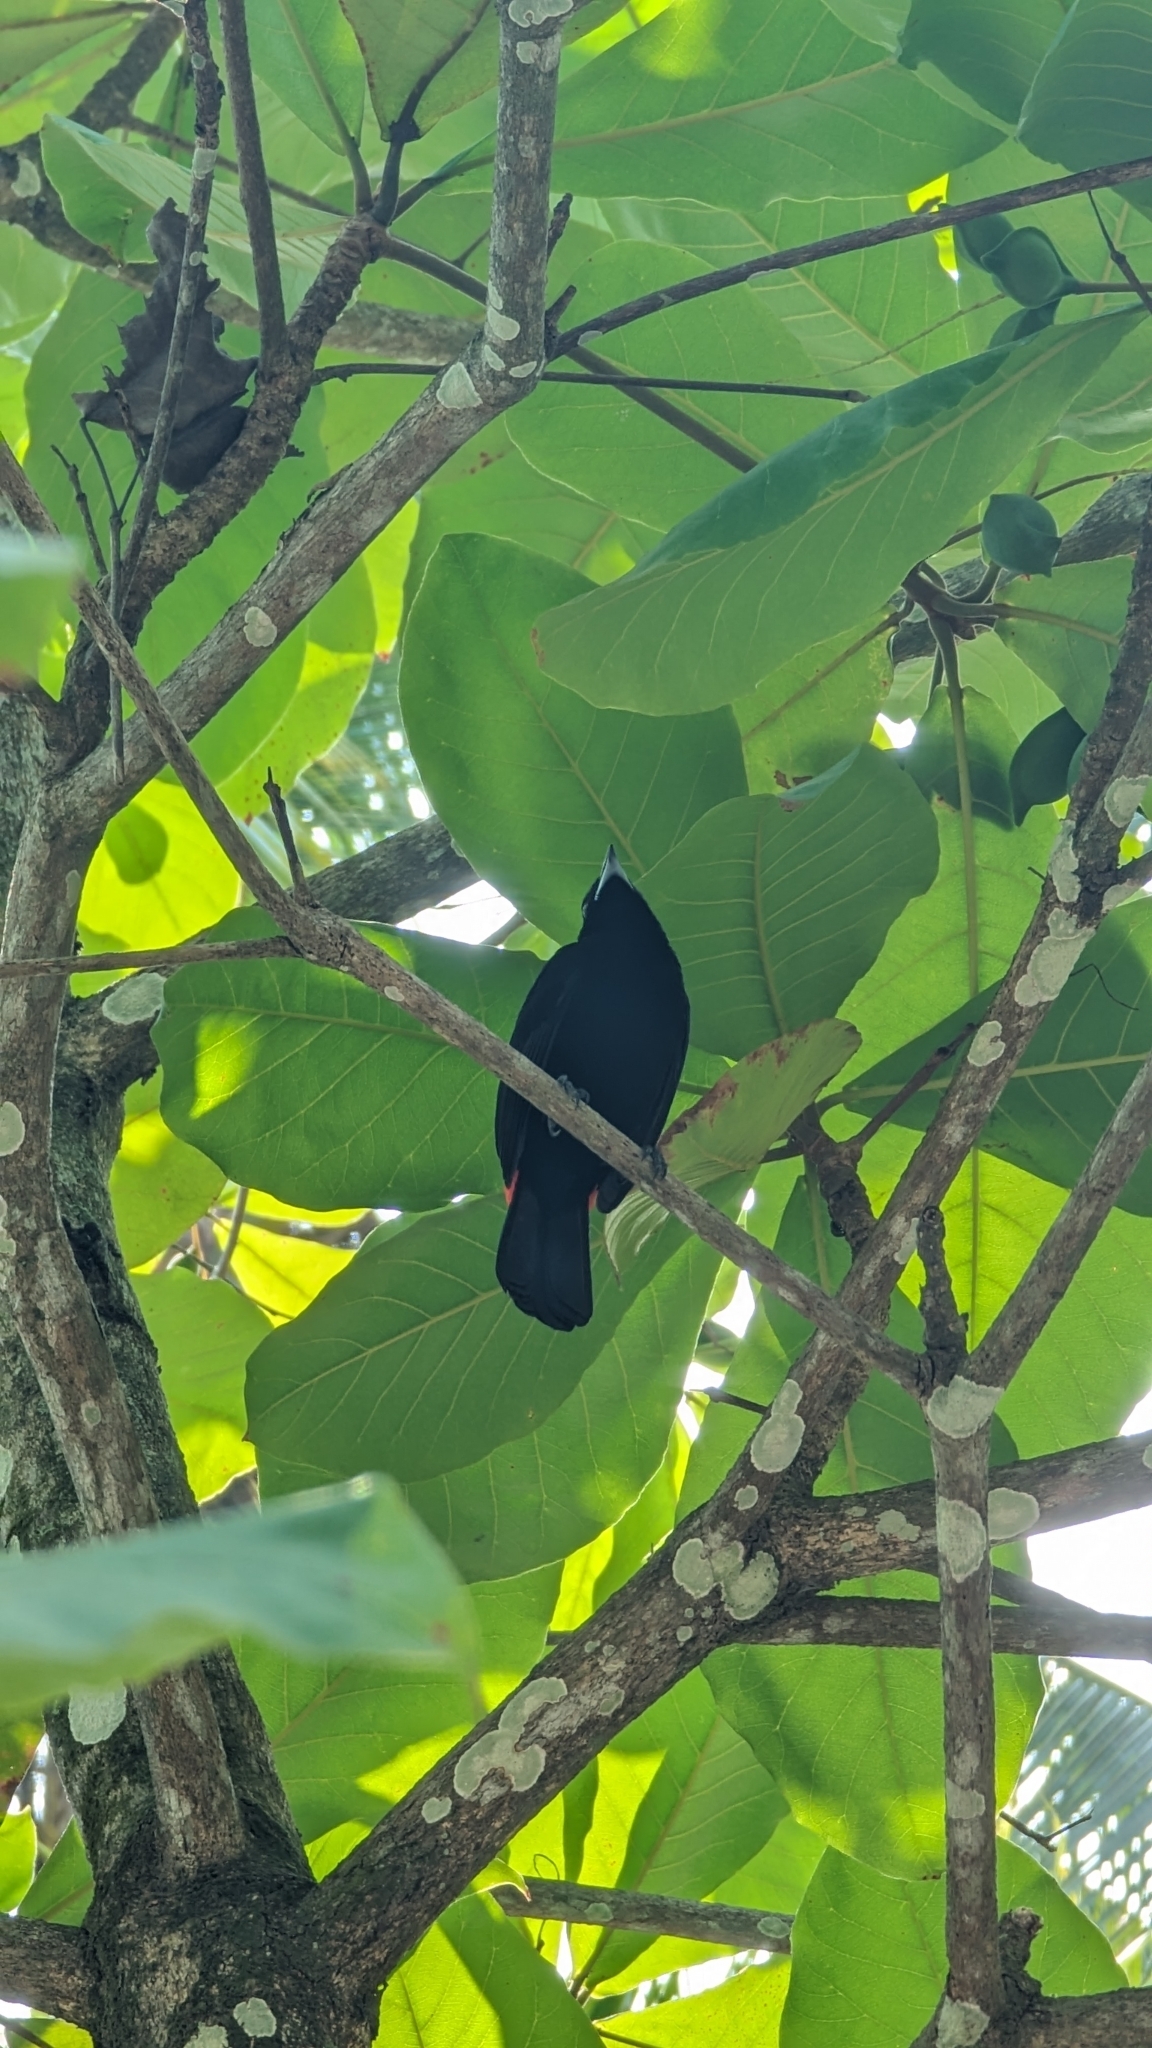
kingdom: Animalia
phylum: Chordata
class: Aves
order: Passeriformes
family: Thraupidae
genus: Ramphocelus
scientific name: Ramphocelus passerinii
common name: Passerini's tanager
